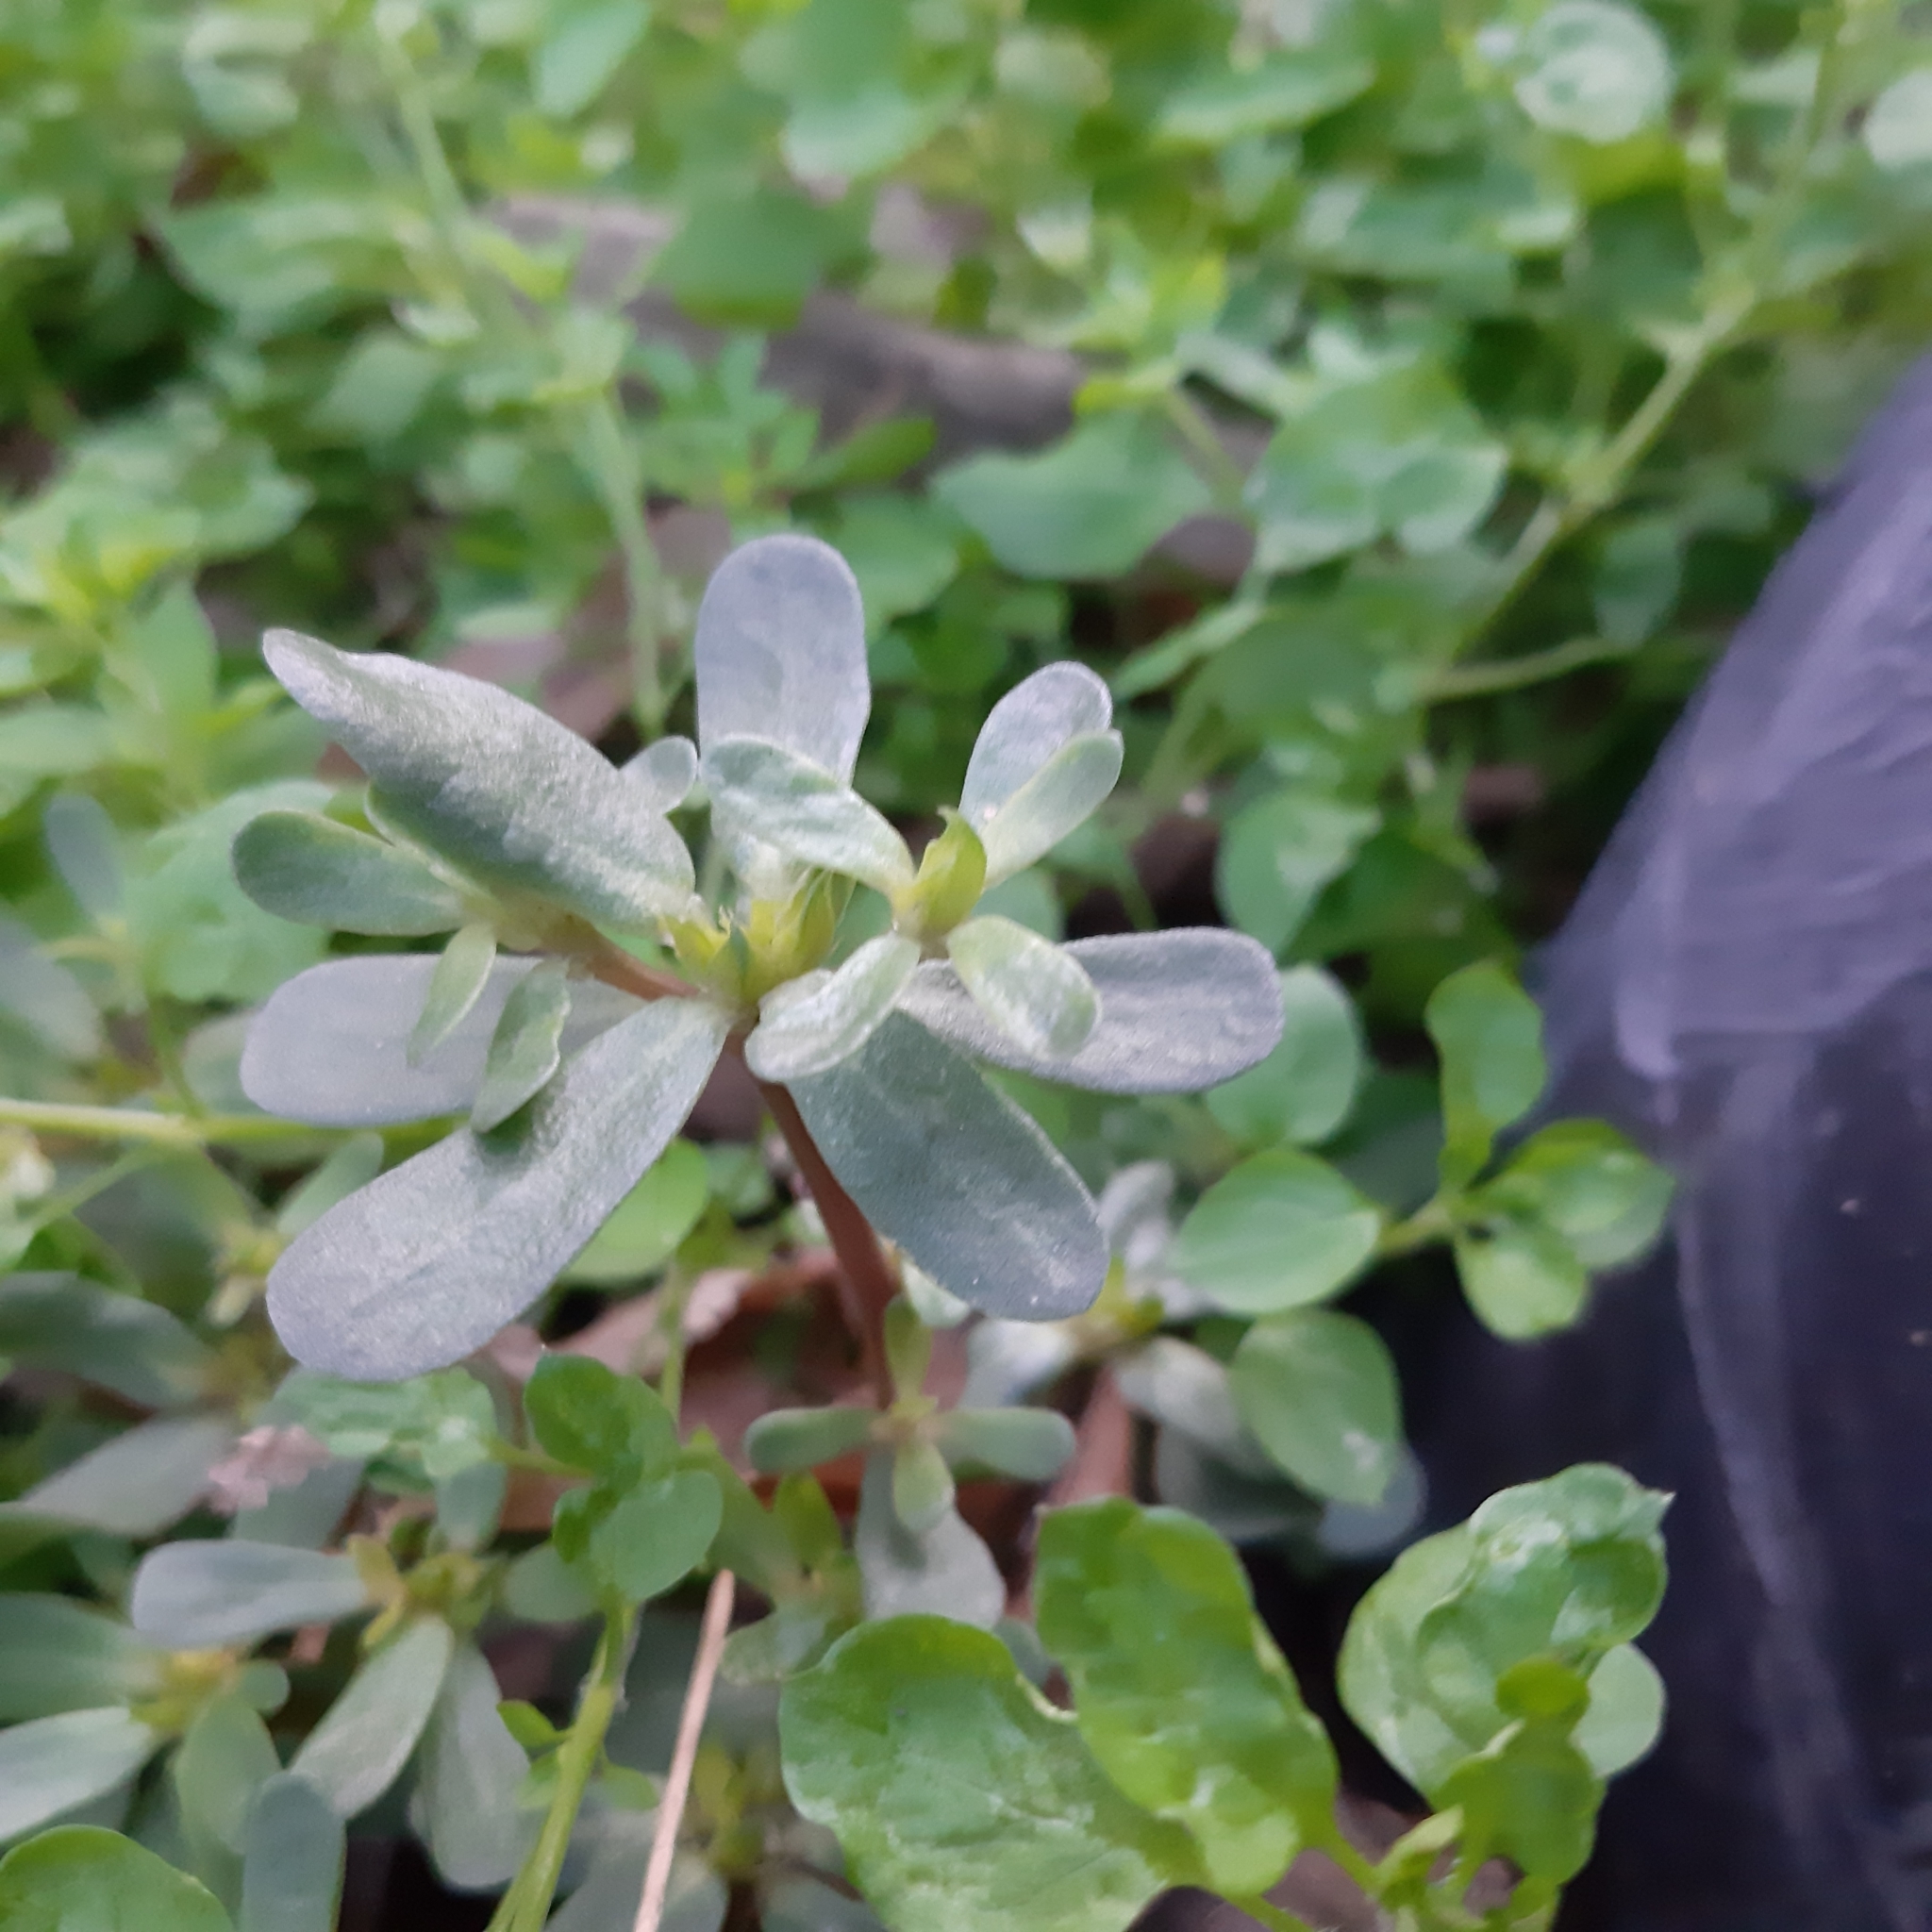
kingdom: Plantae
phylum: Tracheophyta
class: Magnoliopsida
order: Caryophyllales
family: Portulacaceae
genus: Portulaca
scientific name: Portulaca oleracea
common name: Common purslane
